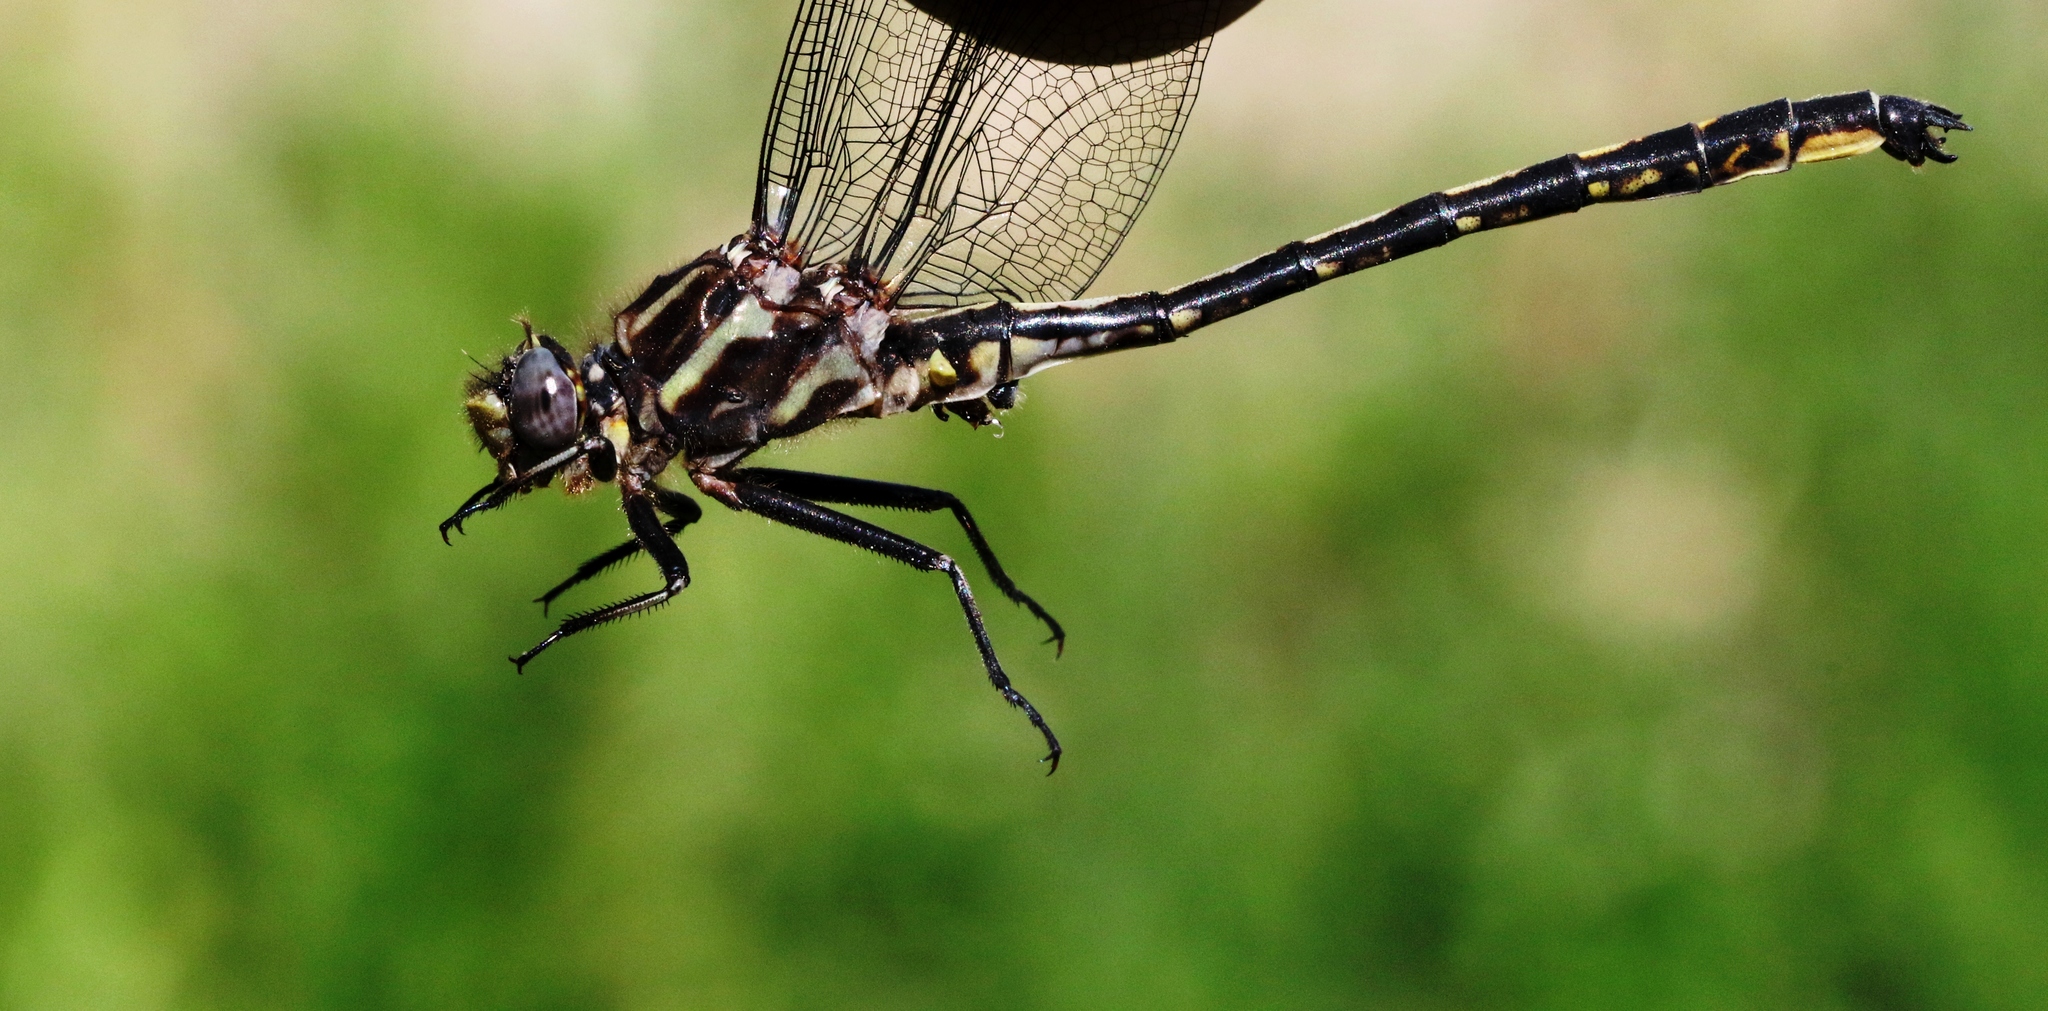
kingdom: Animalia
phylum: Arthropoda
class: Insecta
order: Odonata
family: Gomphidae
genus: Phanogomphus
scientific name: Phanogomphus spicatus
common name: Dusky clubtail
